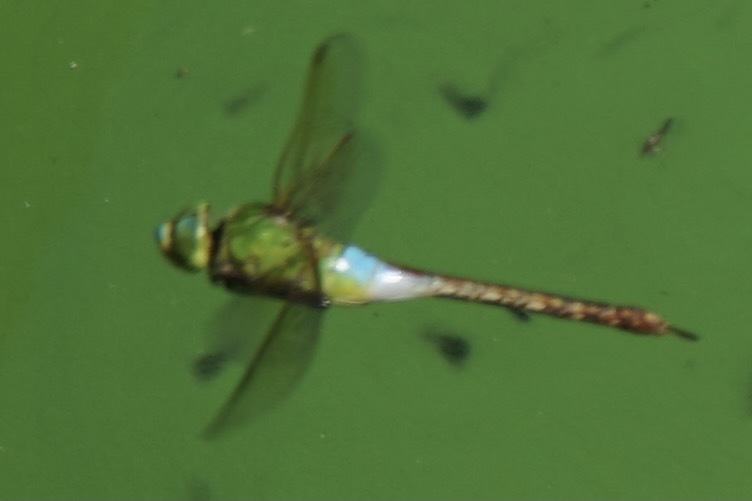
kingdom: Animalia
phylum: Arthropoda
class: Insecta
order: Odonata
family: Aeshnidae
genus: Anax
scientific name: Anax julius
